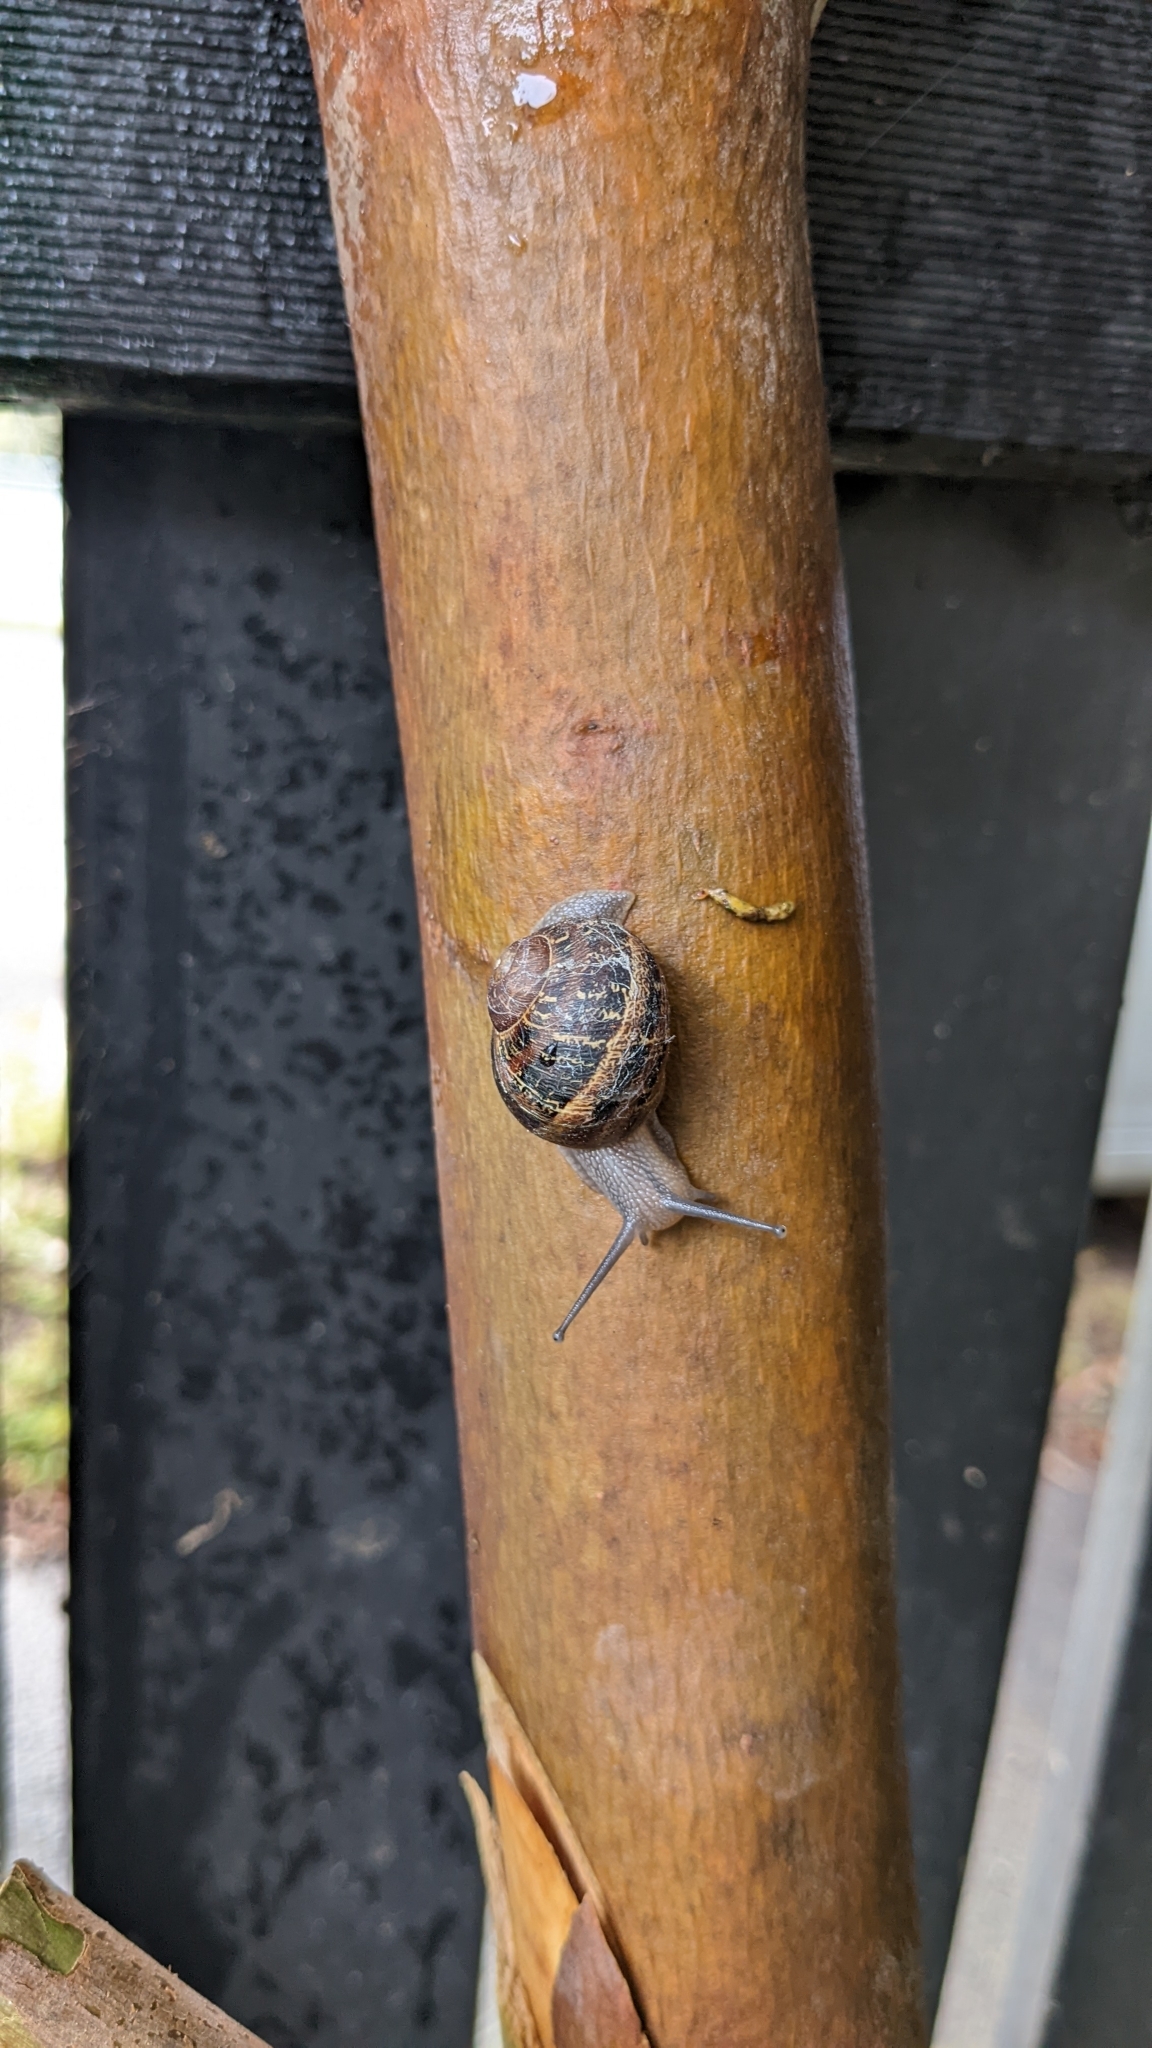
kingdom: Animalia
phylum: Mollusca
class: Gastropoda
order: Stylommatophora
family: Helicidae
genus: Cornu
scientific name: Cornu aspersum
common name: Brown garden snail
